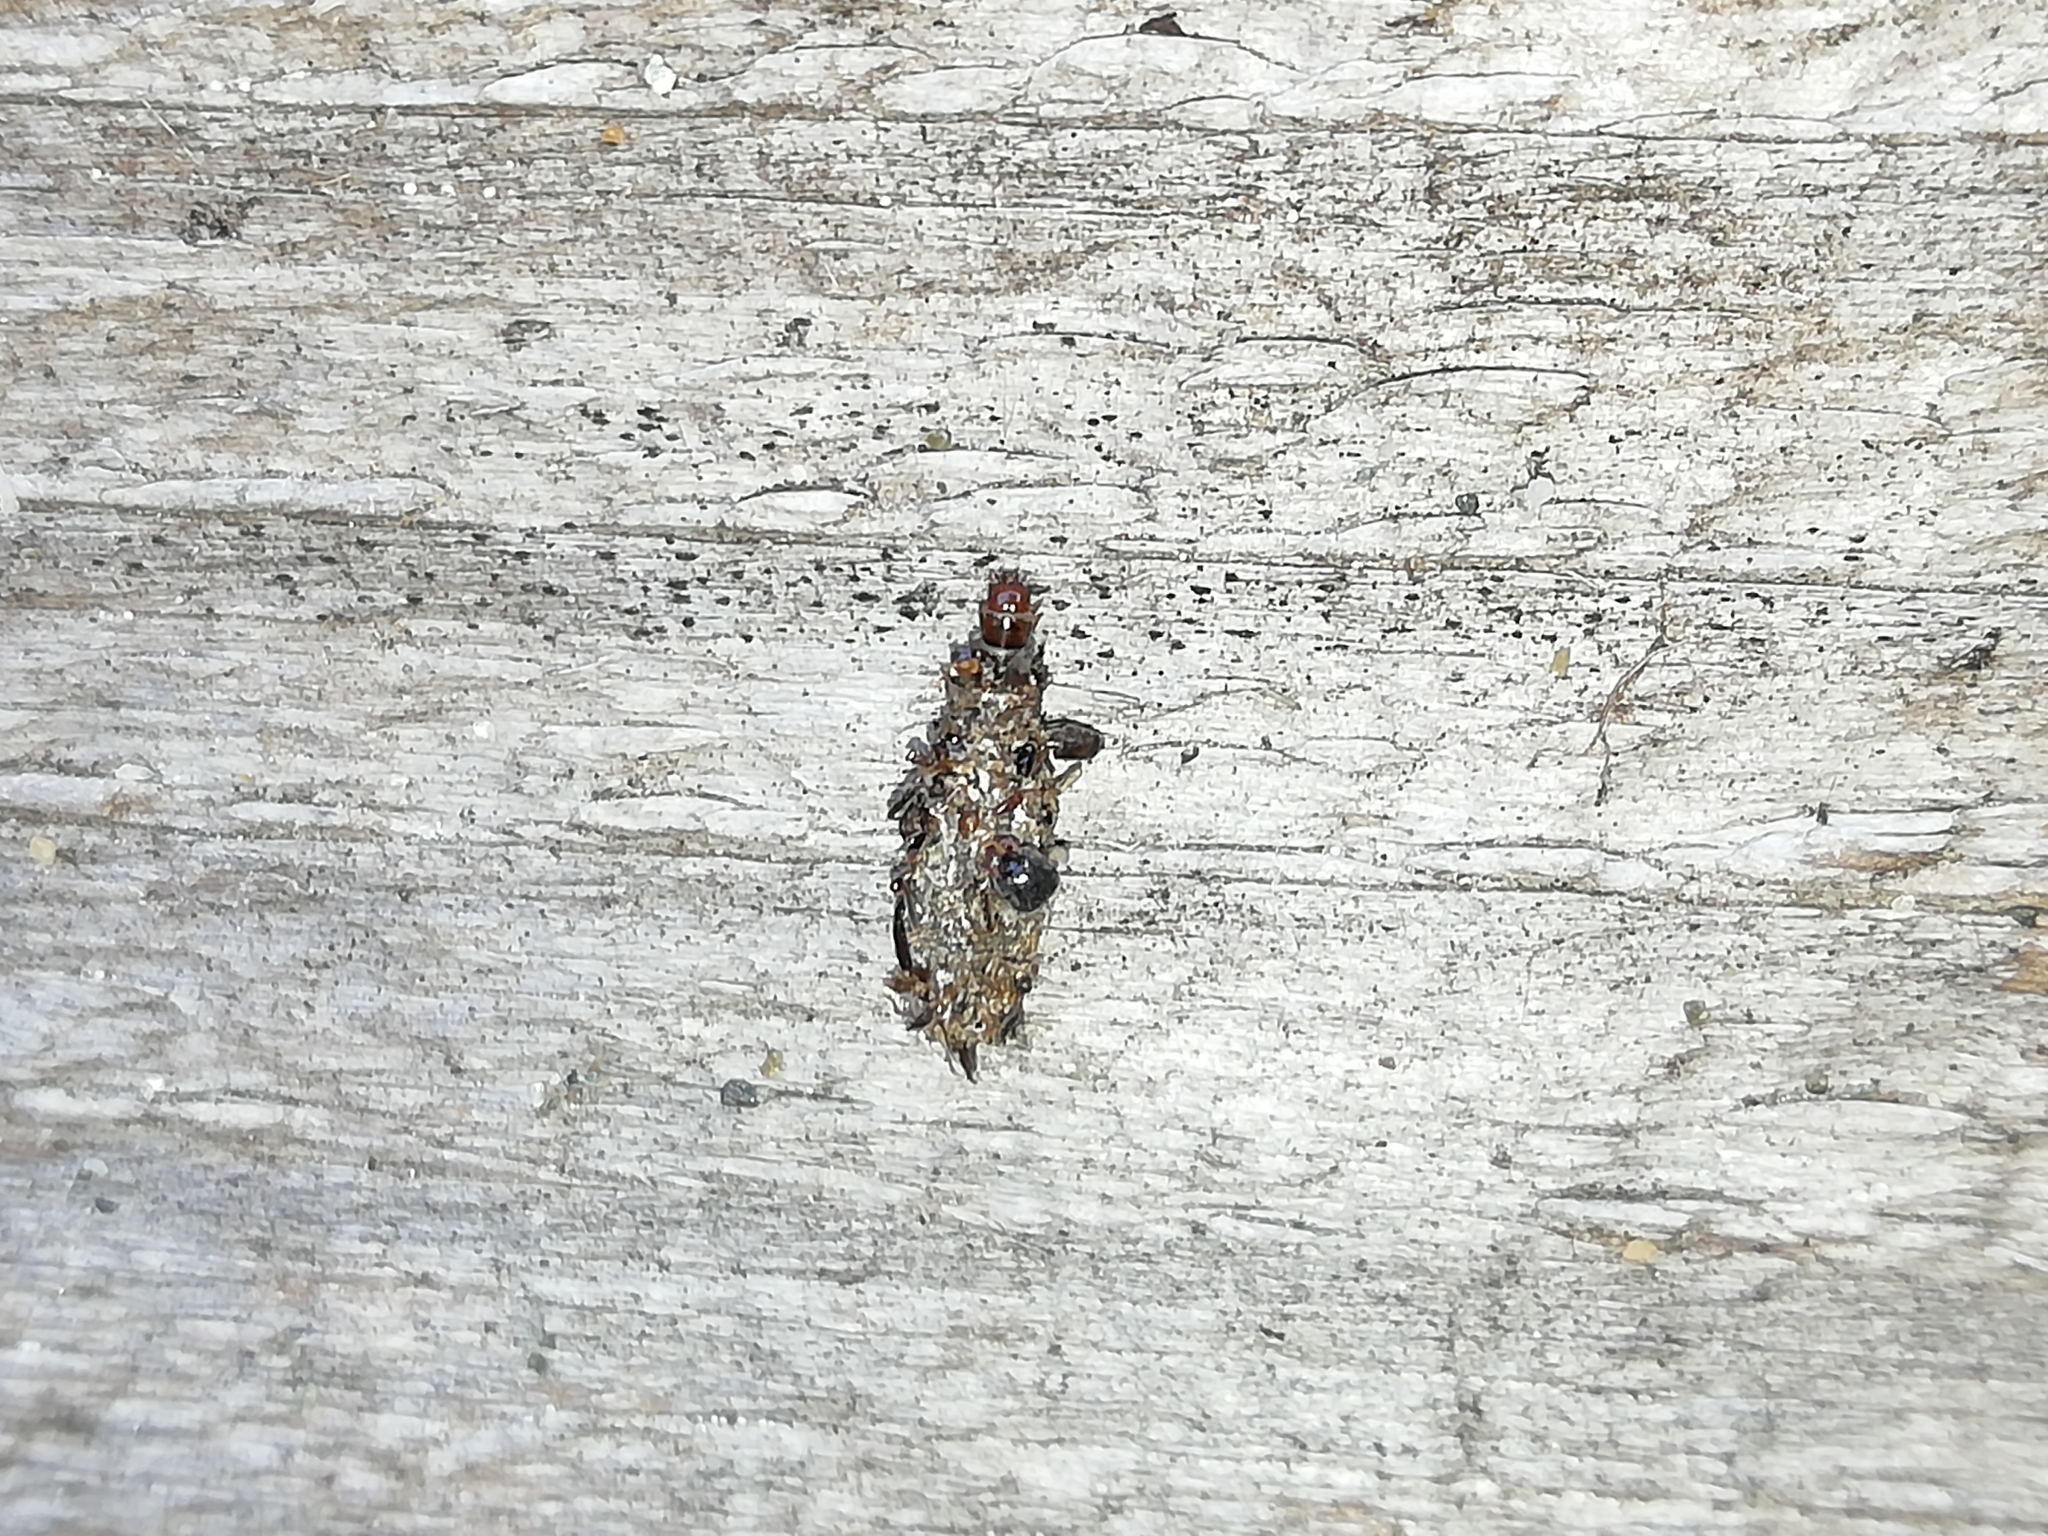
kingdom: Animalia
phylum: Arthropoda
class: Insecta
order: Lepidoptera
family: Psychidae
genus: Dahlica
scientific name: Dahlica listerella
